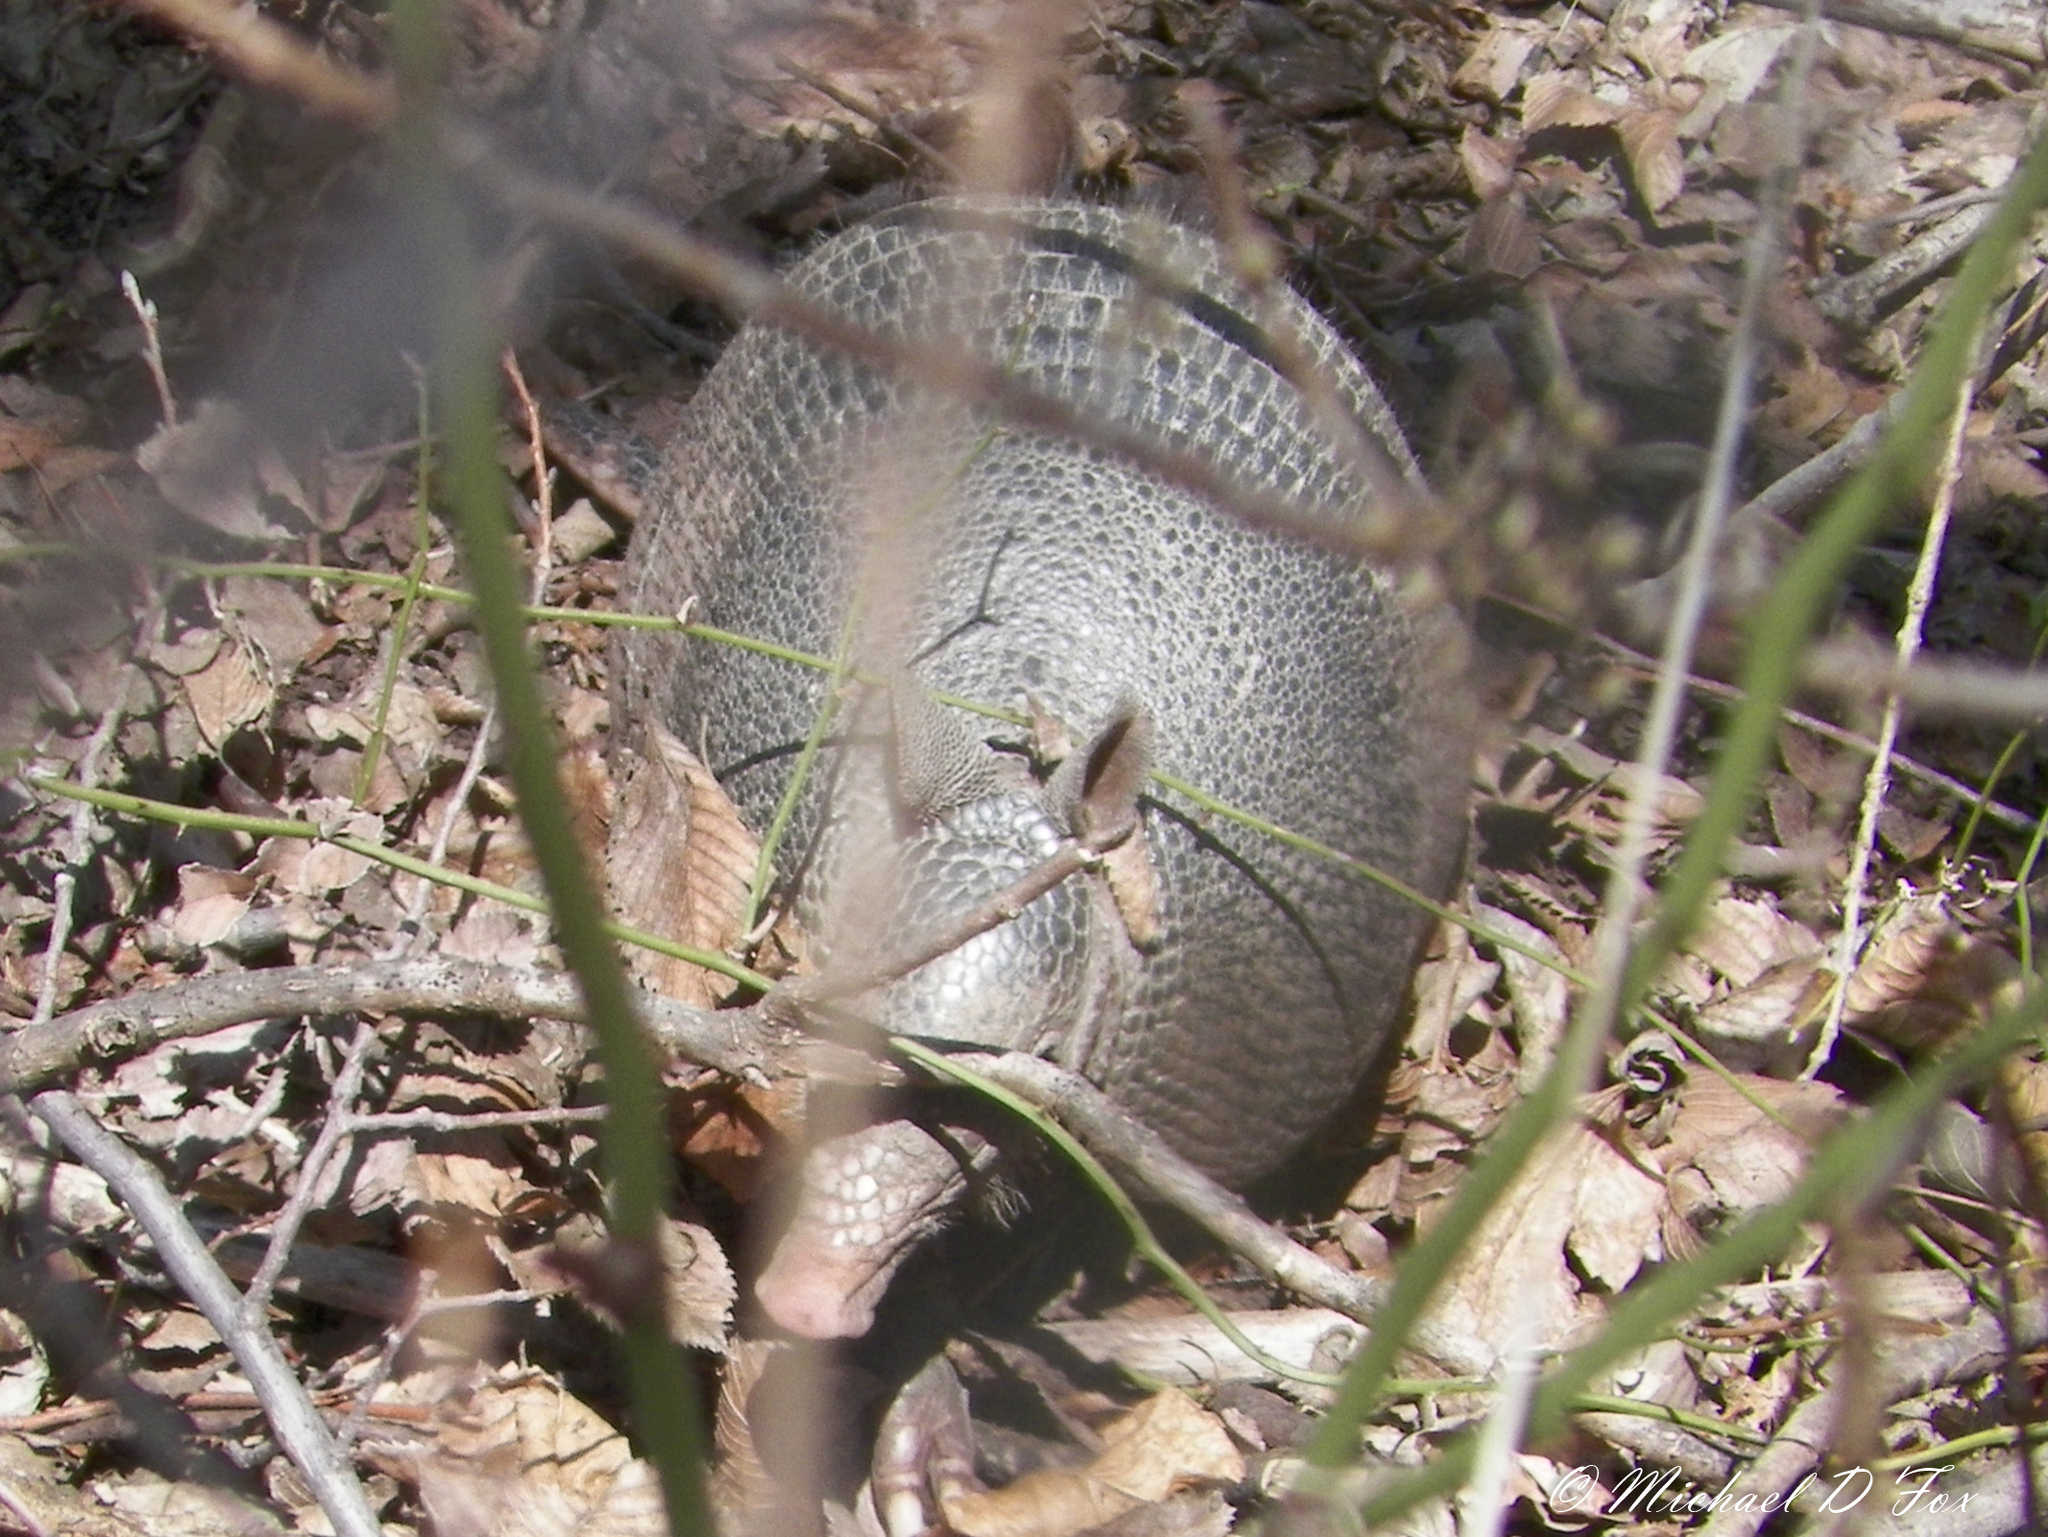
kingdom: Animalia
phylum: Chordata
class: Mammalia
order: Cingulata
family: Dasypodidae
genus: Dasypus
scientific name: Dasypus novemcinctus
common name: Nine-banded armadillo
